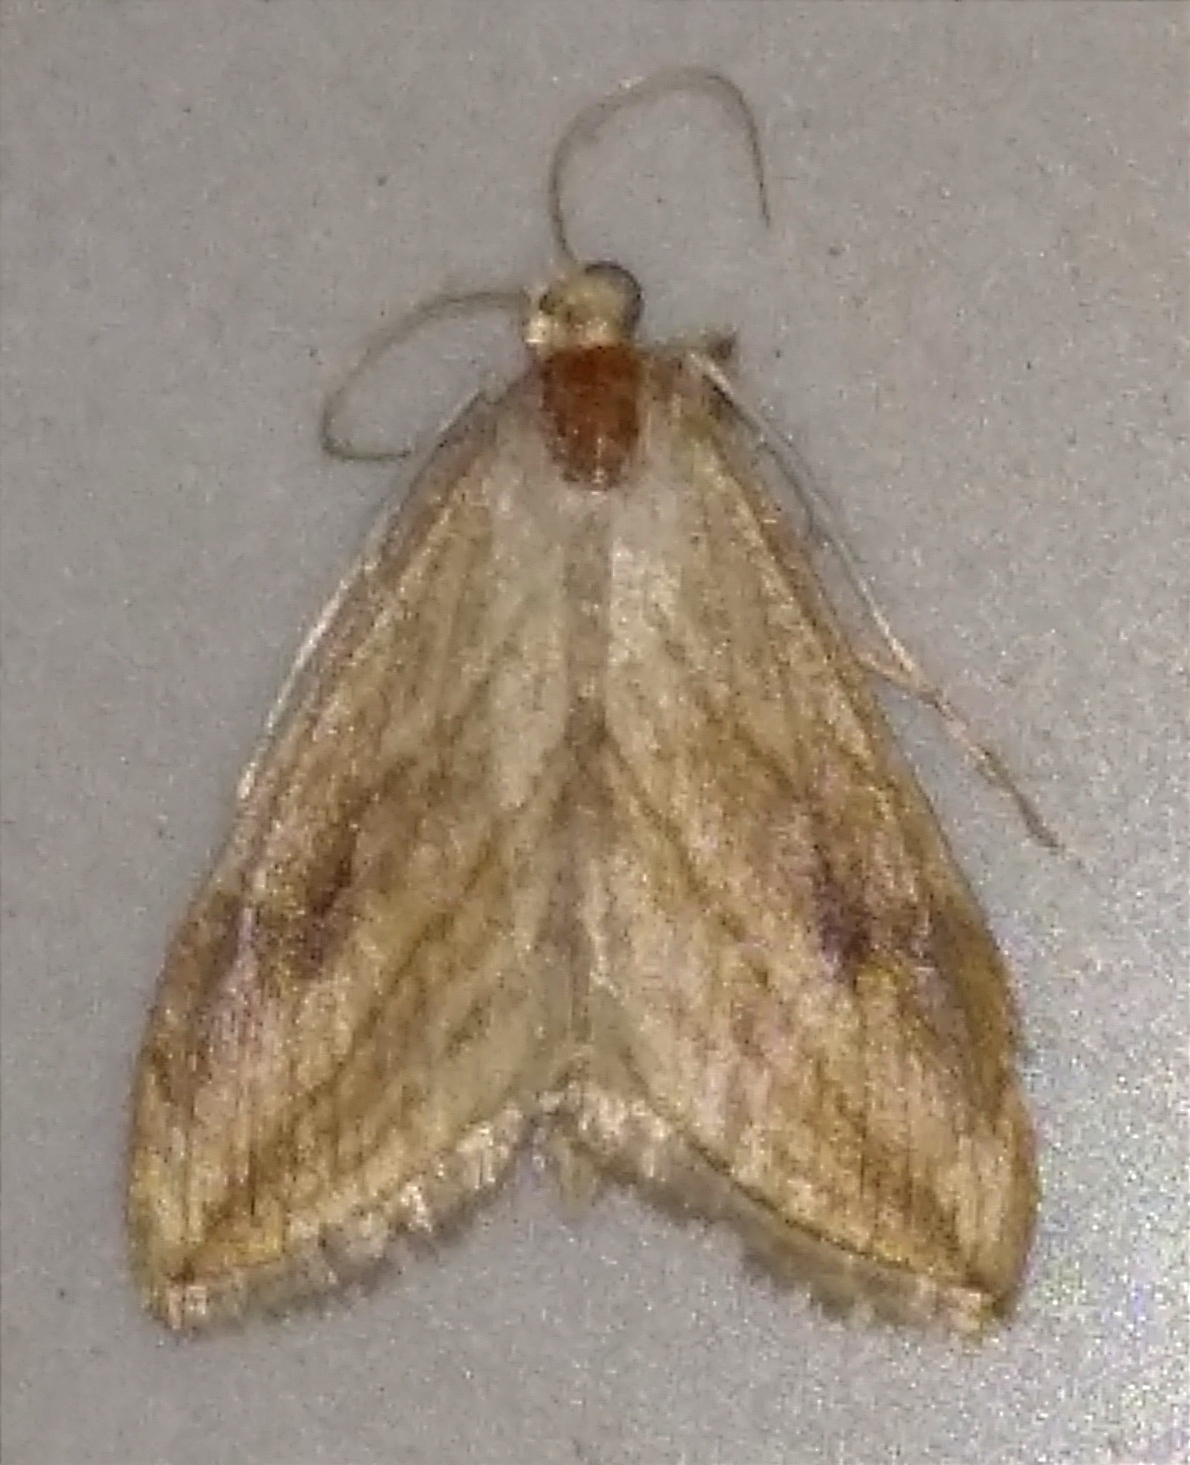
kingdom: Animalia
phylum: Arthropoda
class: Insecta
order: Lepidoptera
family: Crambidae
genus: Evergestis
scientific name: Evergestis forficalis
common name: Garden pebble
